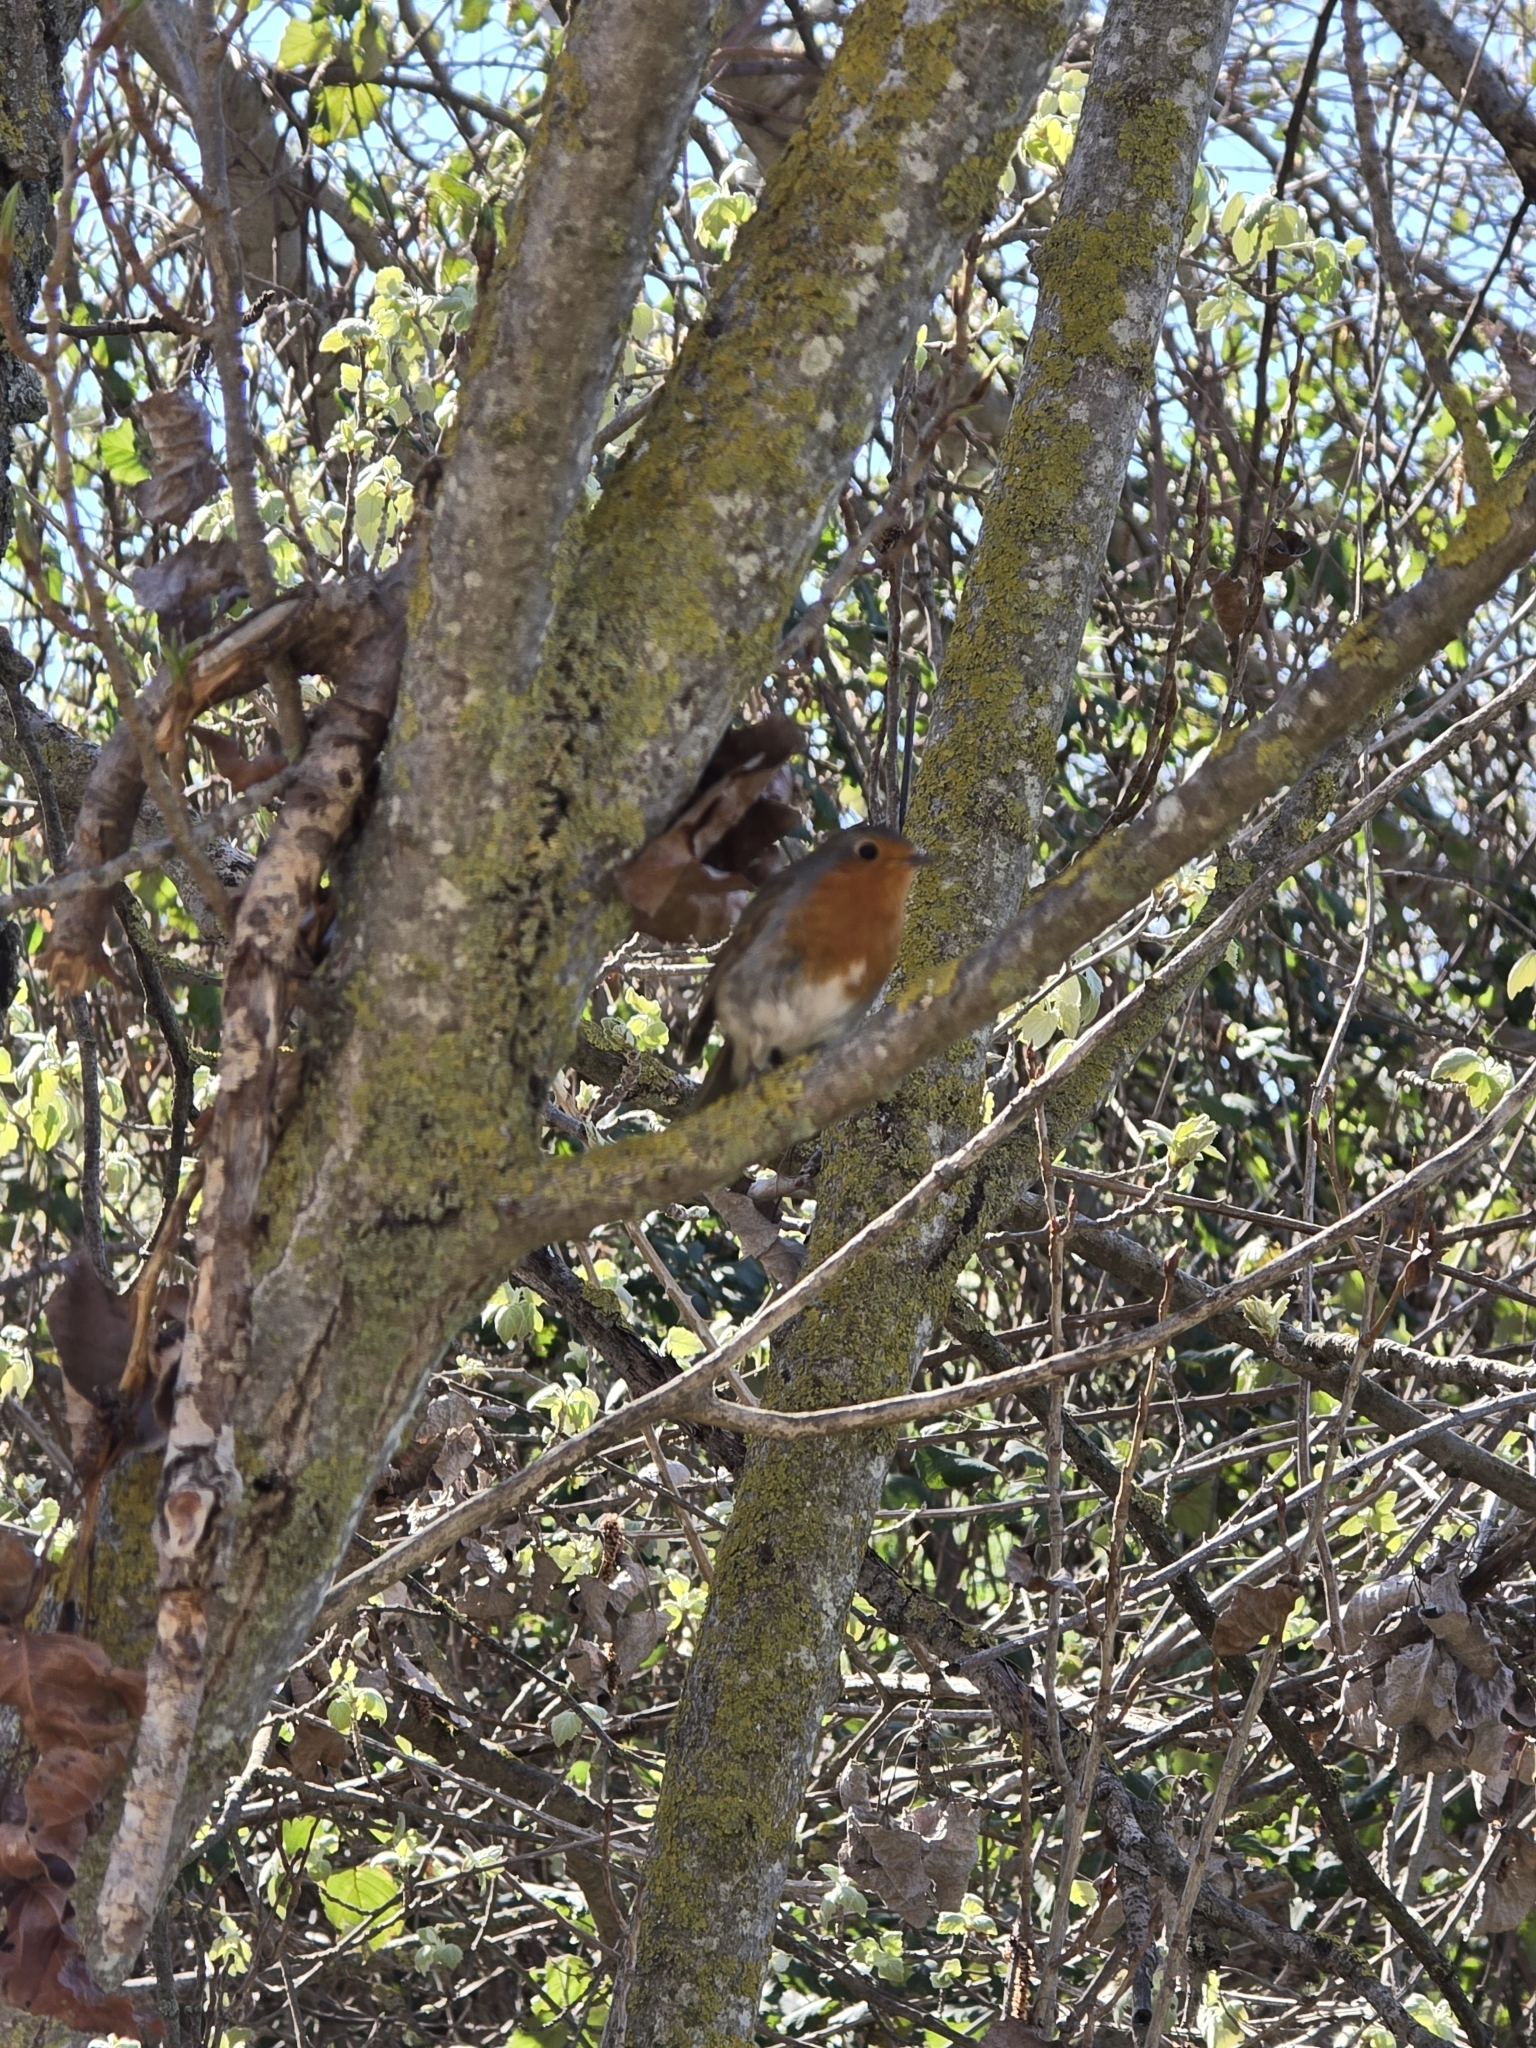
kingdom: Animalia
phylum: Chordata
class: Aves
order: Passeriformes
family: Muscicapidae
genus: Erithacus
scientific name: Erithacus rubecula
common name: European robin
